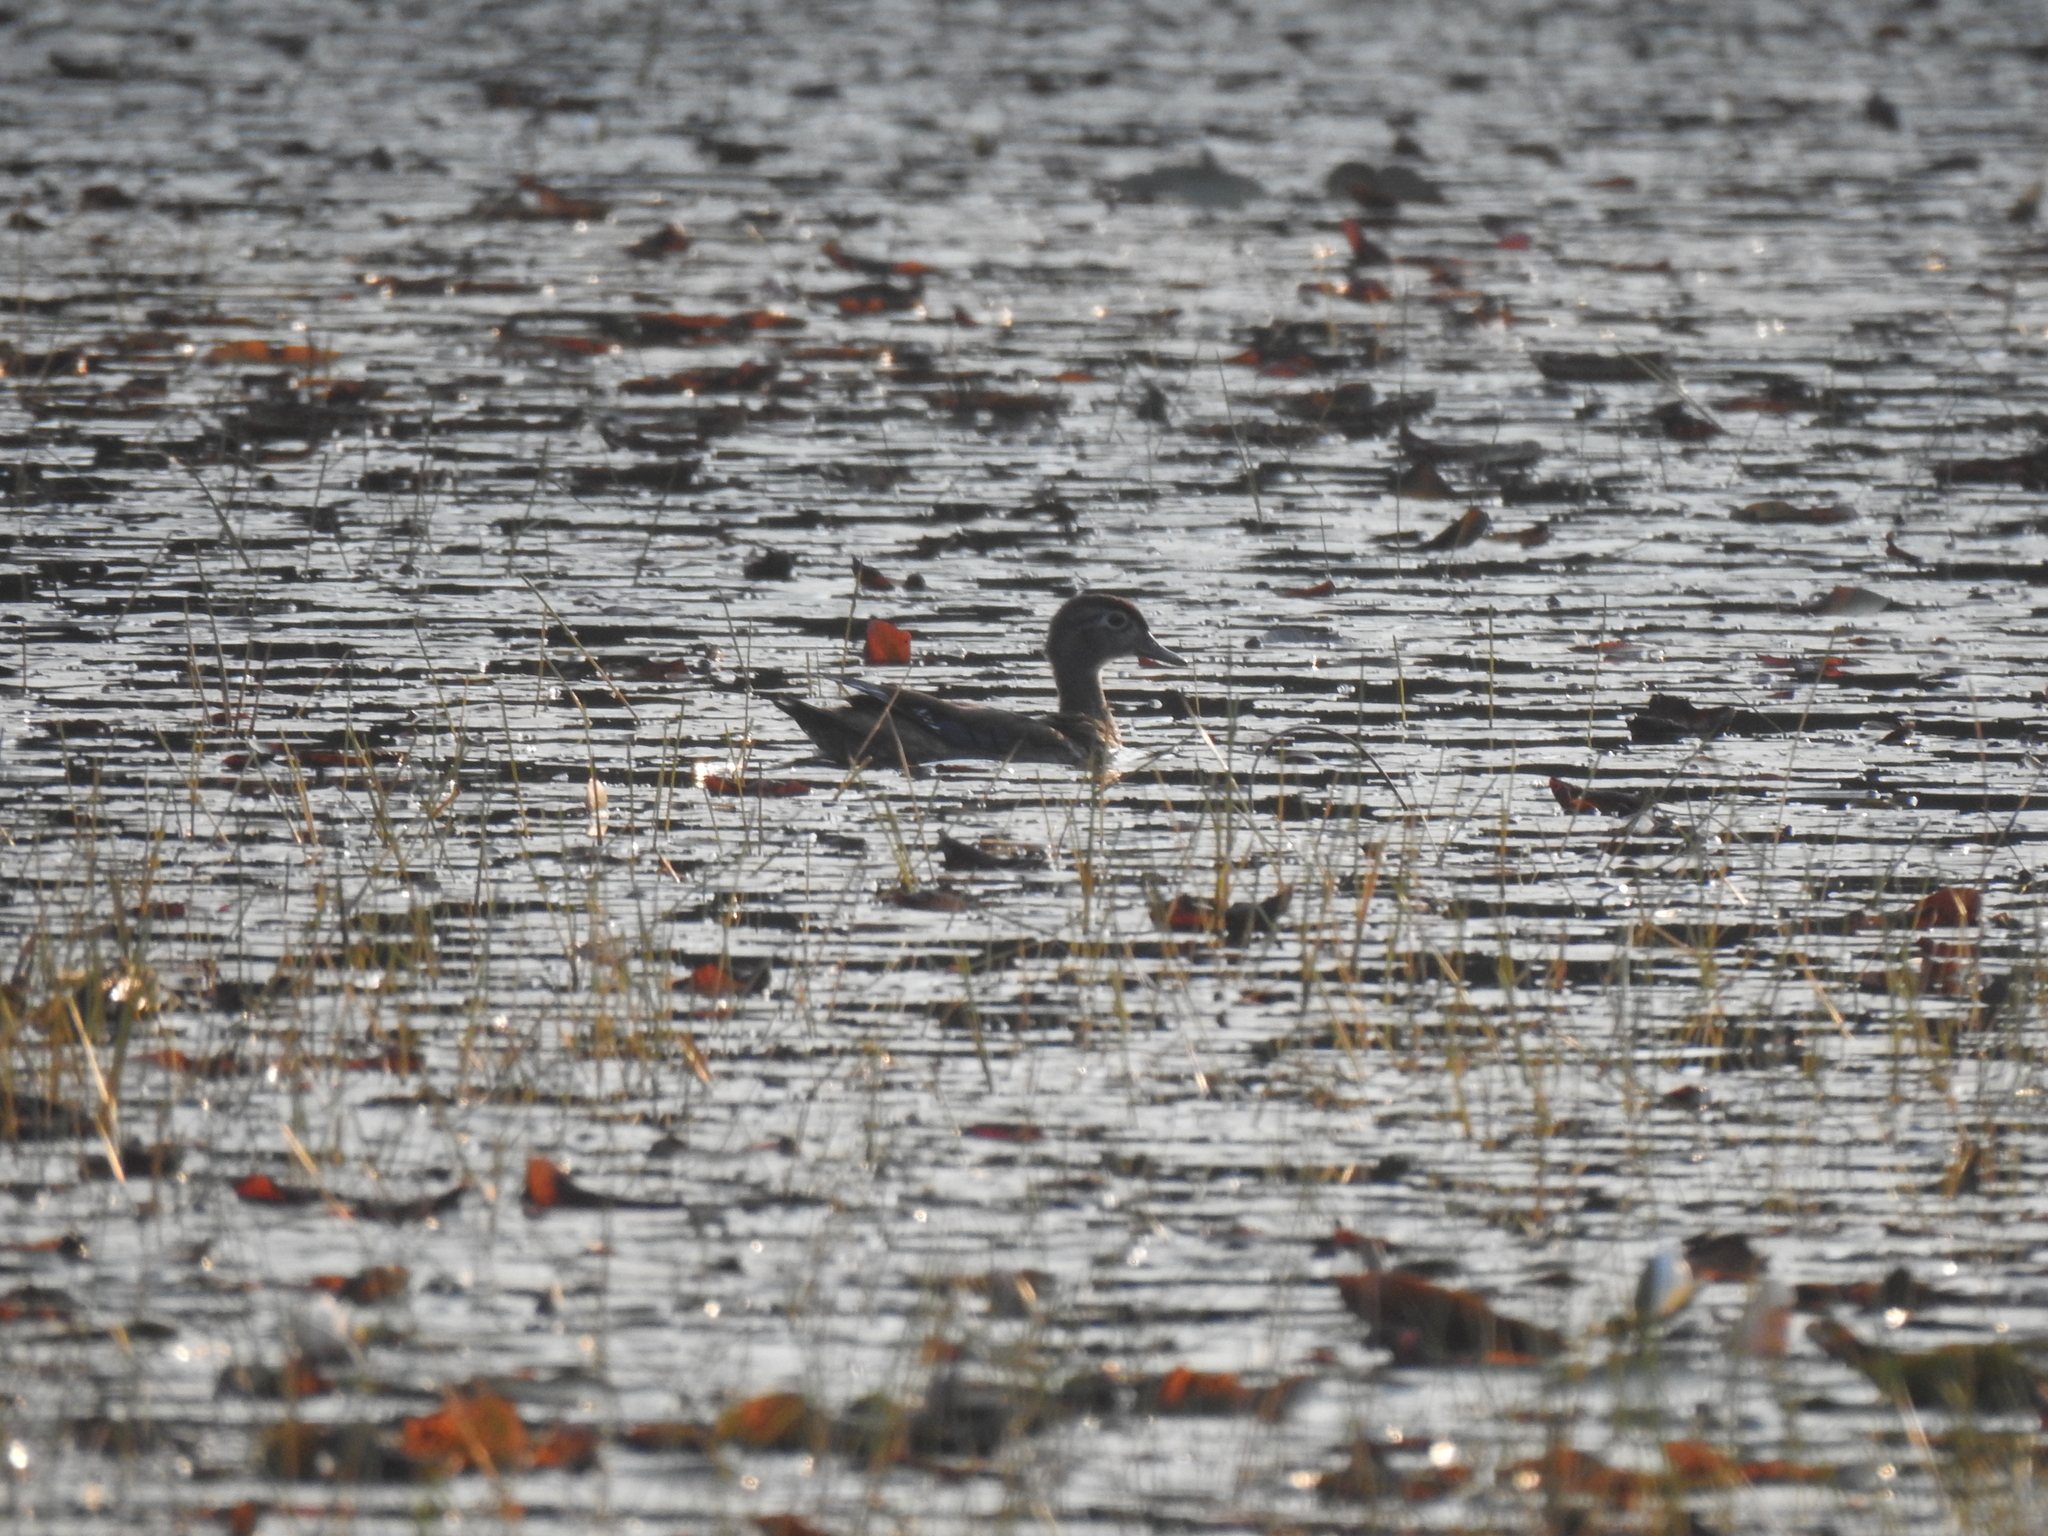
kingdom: Animalia
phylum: Chordata
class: Aves
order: Anseriformes
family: Anatidae
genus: Aix
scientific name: Aix sponsa
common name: Wood duck
